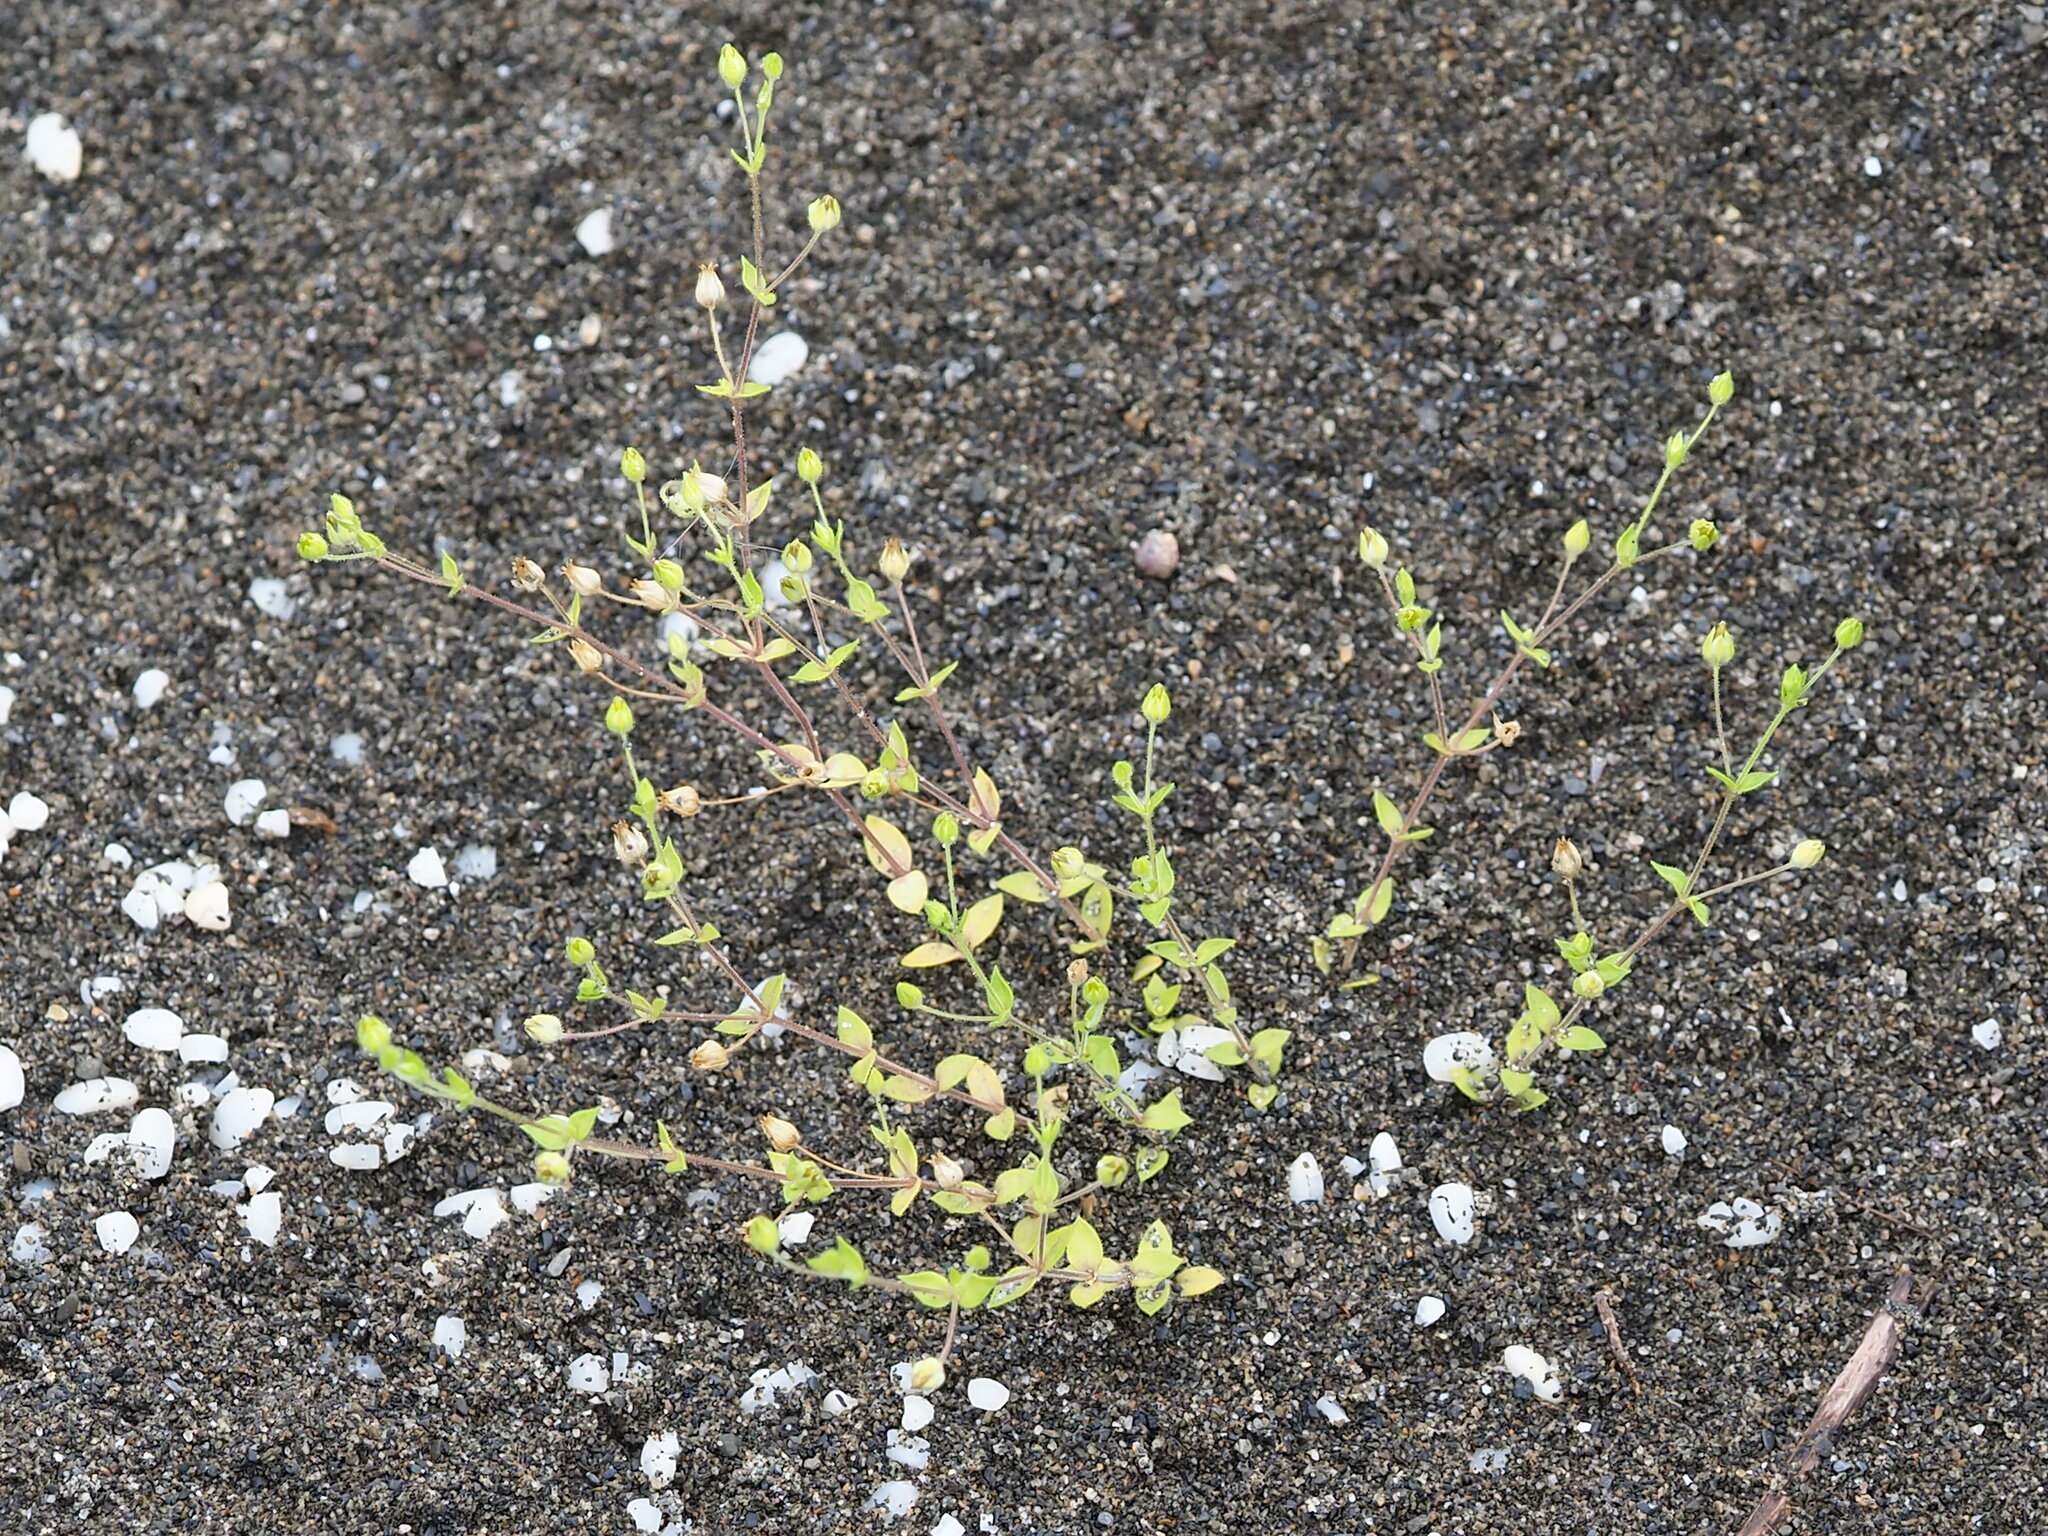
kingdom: Plantae
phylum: Tracheophyta
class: Magnoliopsida
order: Caryophyllales
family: Caryophyllaceae
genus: Arenaria
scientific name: Arenaria serpyllifolia
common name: Thyme-leaved sandwort
